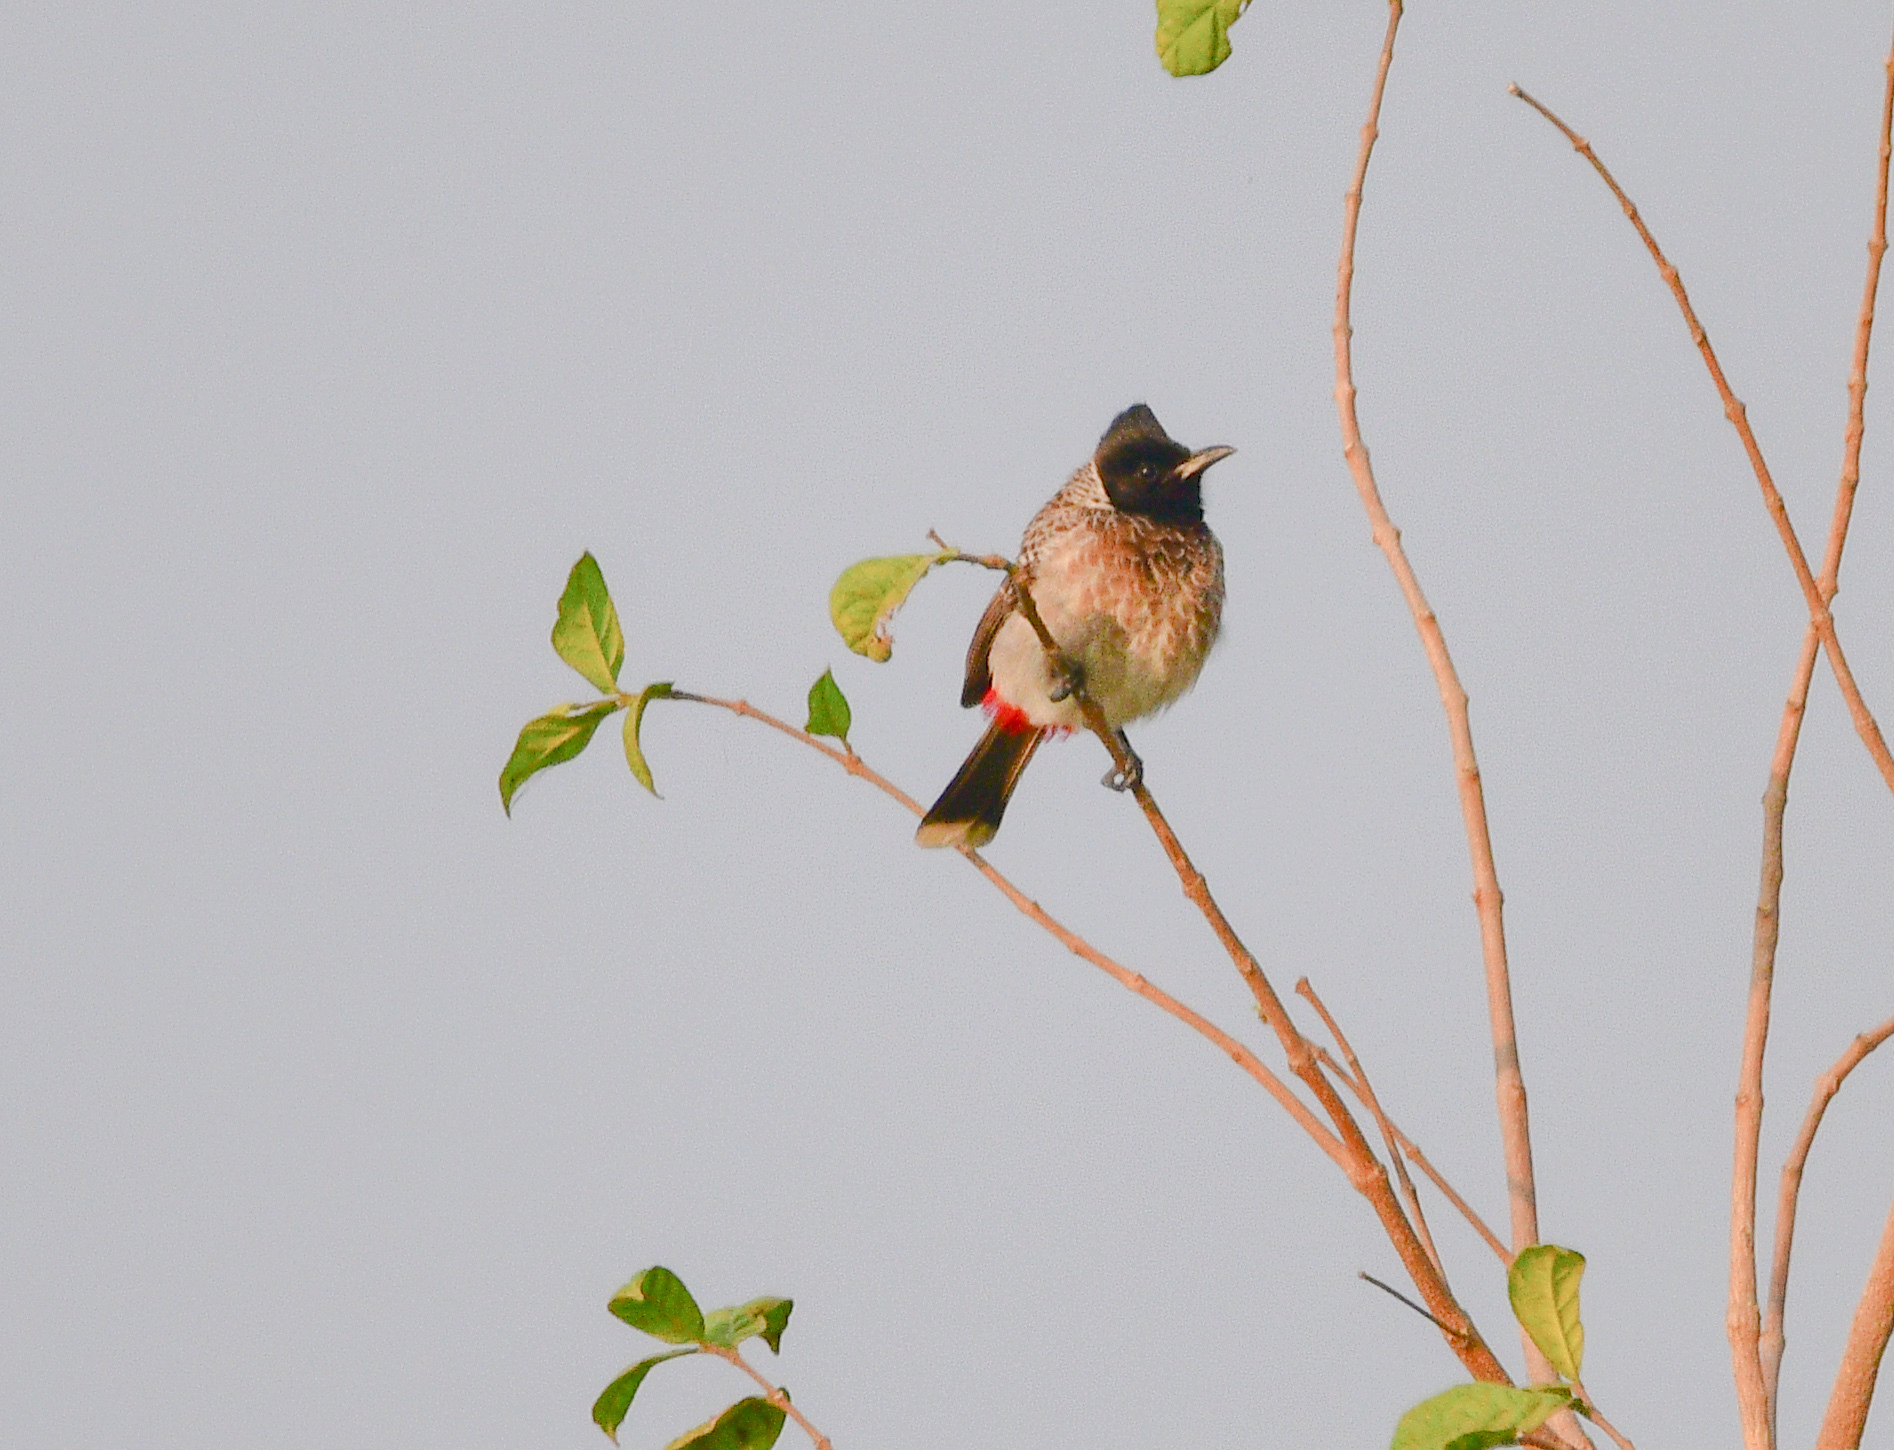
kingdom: Animalia
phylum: Chordata
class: Aves
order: Passeriformes
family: Pycnonotidae
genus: Pycnonotus
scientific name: Pycnonotus cafer
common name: Red-vented bulbul
